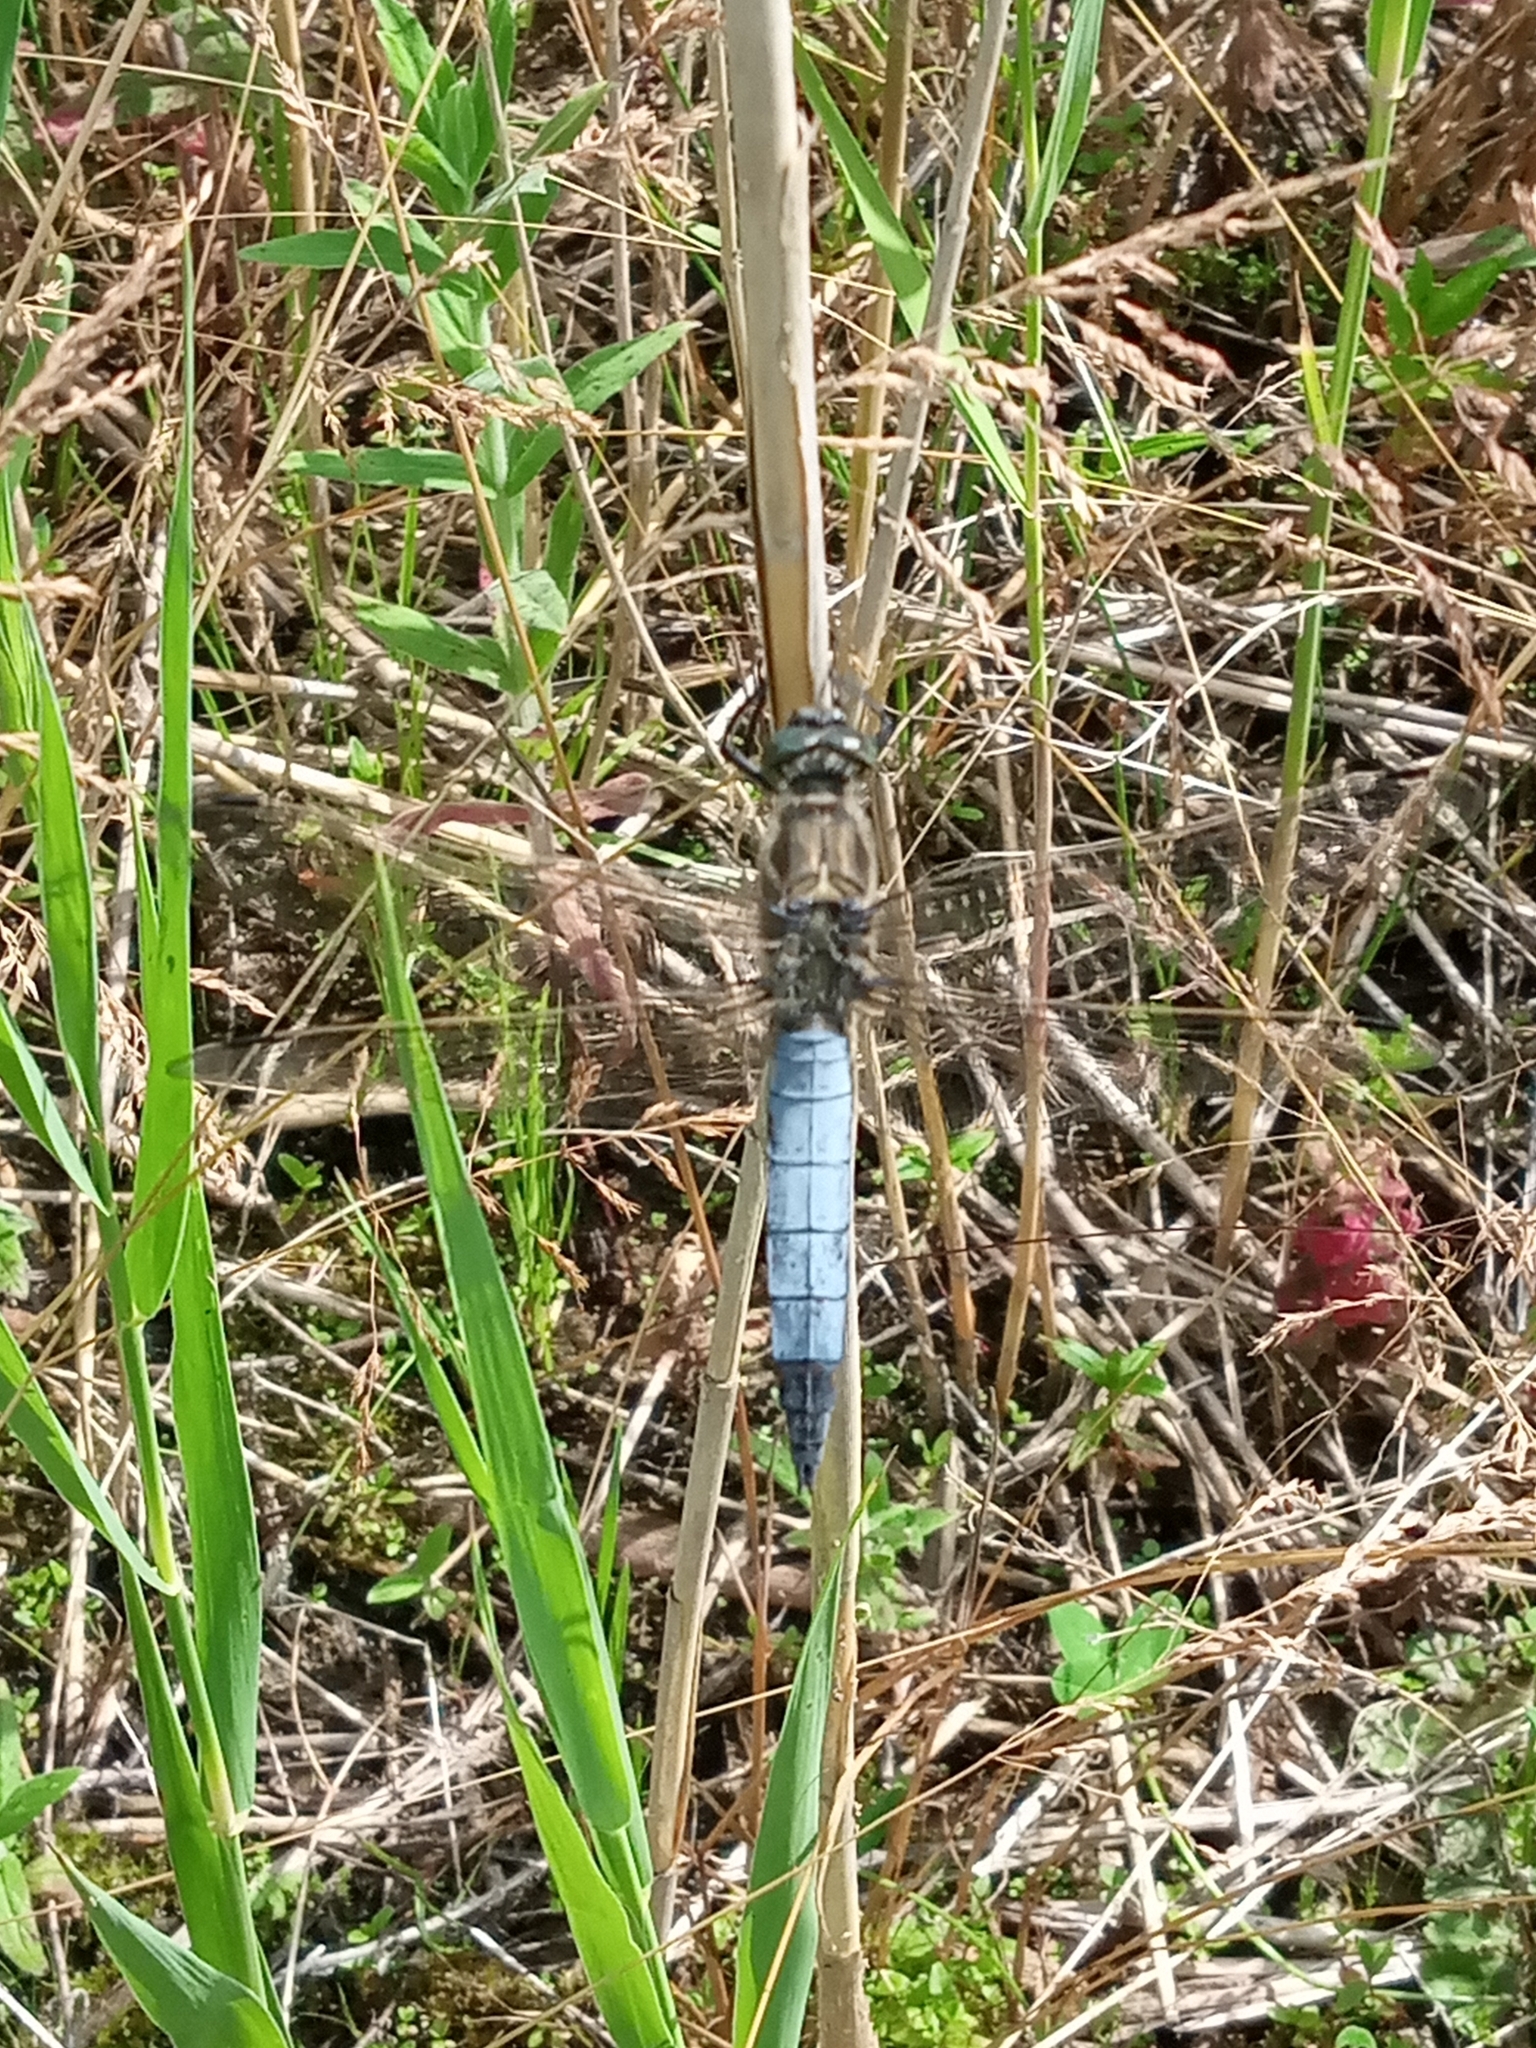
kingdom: Animalia
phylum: Arthropoda
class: Insecta
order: Odonata
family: Libellulidae
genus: Orthetrum
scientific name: Orthetrum cancellatum
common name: Black-tailed skimmer
